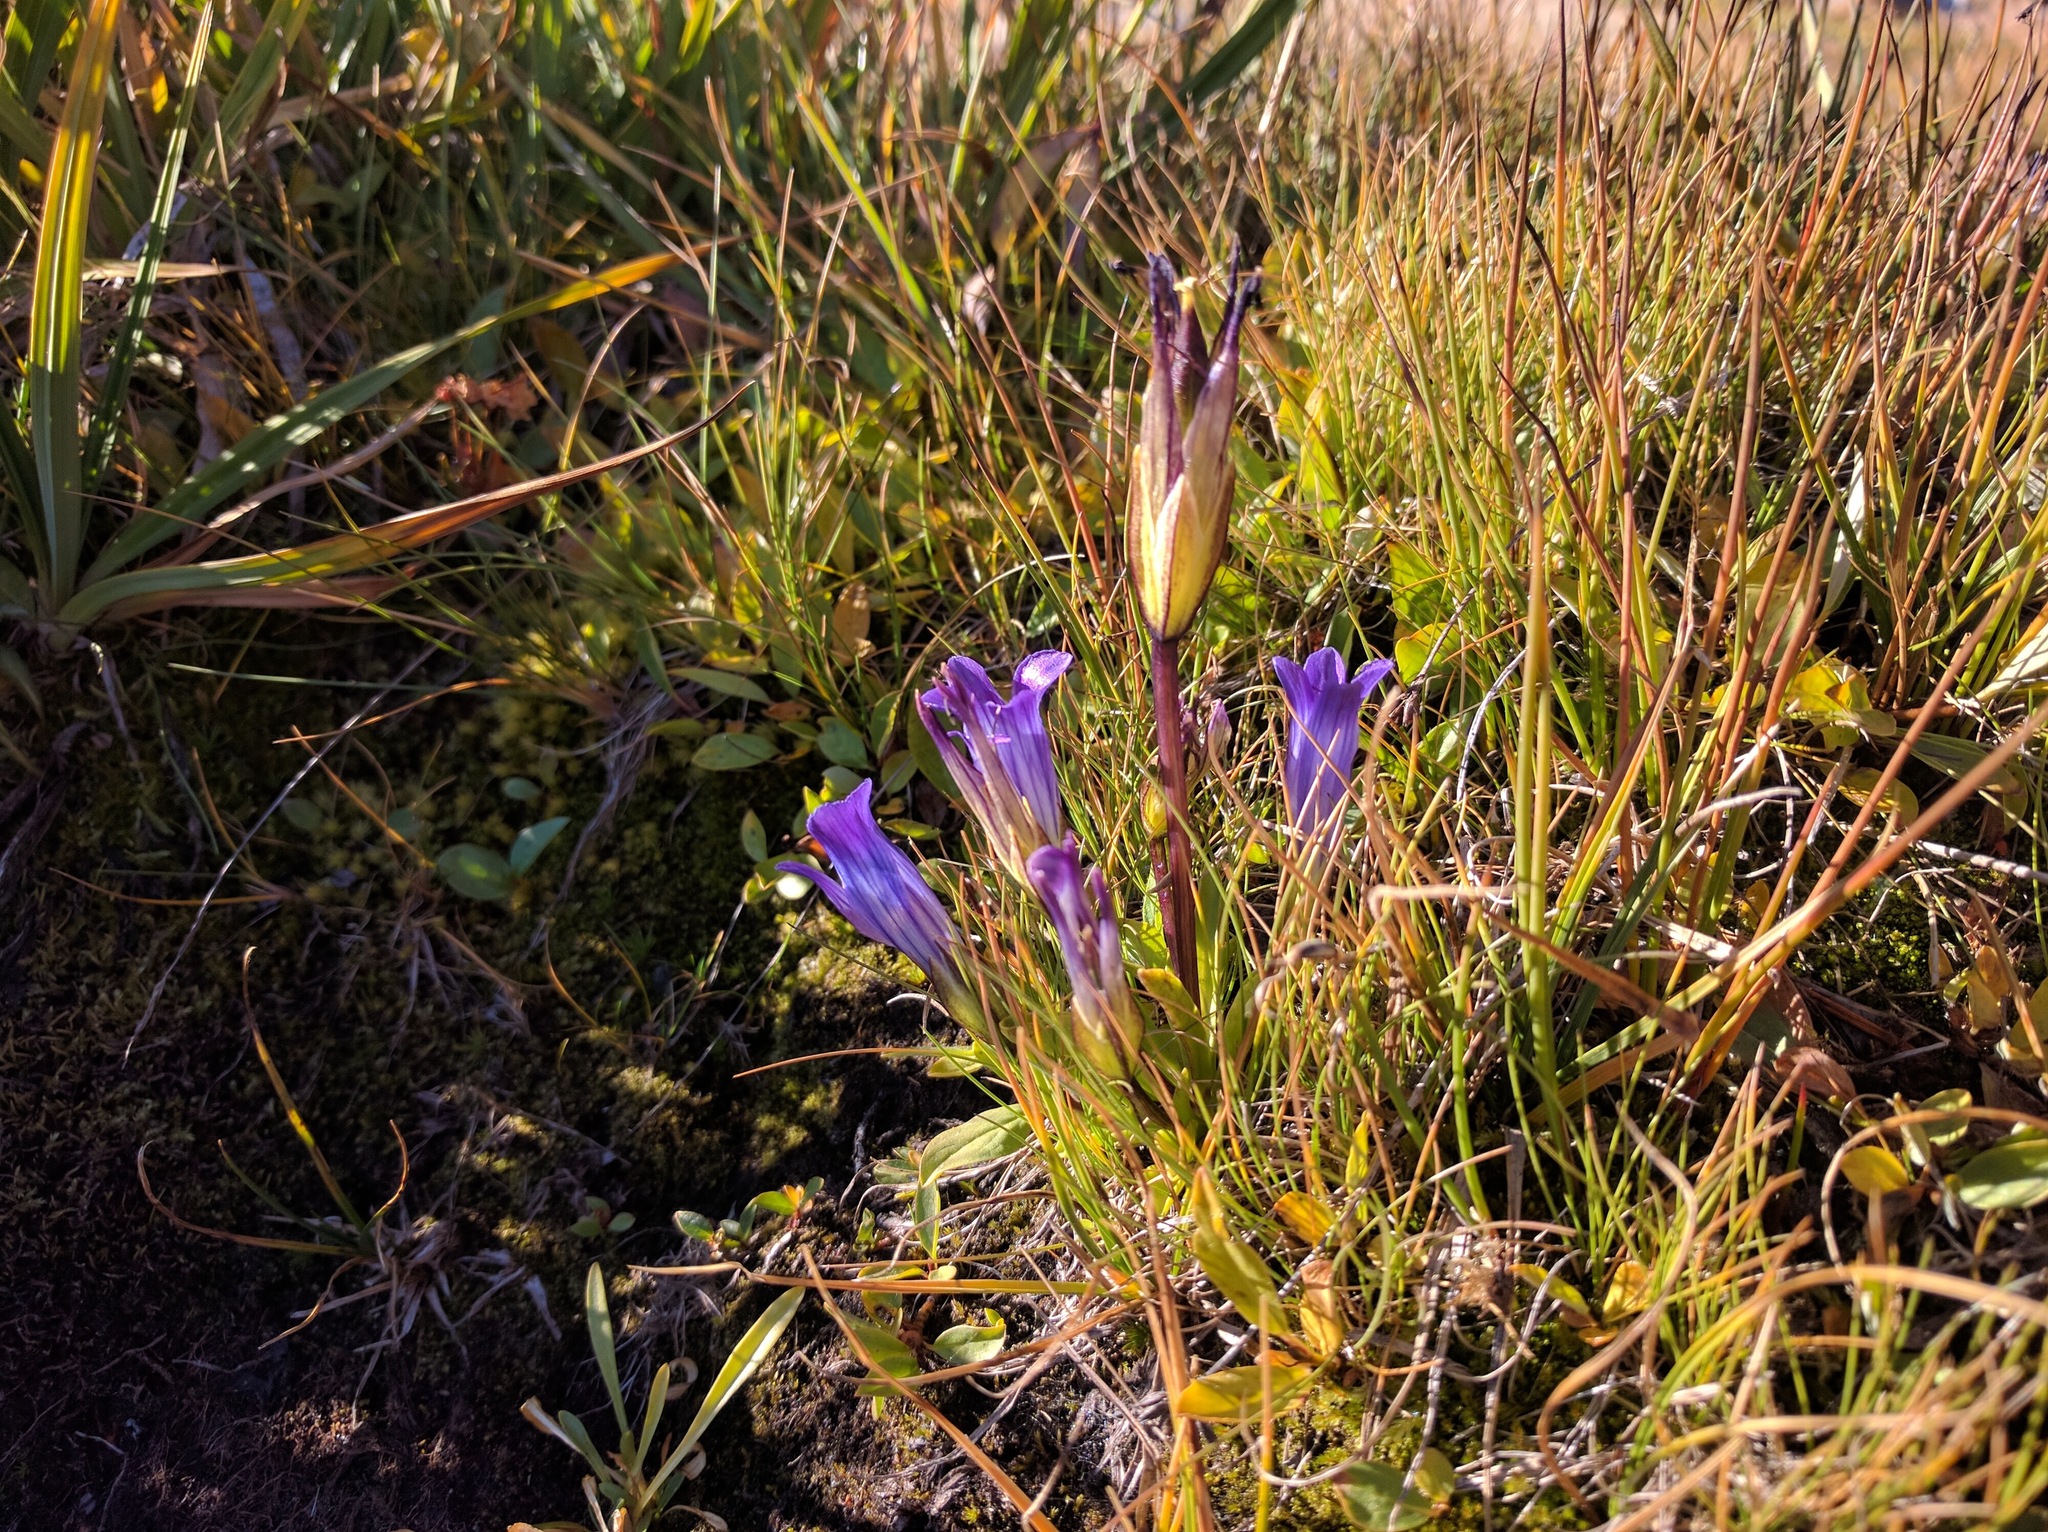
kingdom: Plantae
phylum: Tracheophyta
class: Magnoliopsida
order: Gentianales
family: Gentianaceae
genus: Gentianopsis
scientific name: Gentianopsis holopetala
